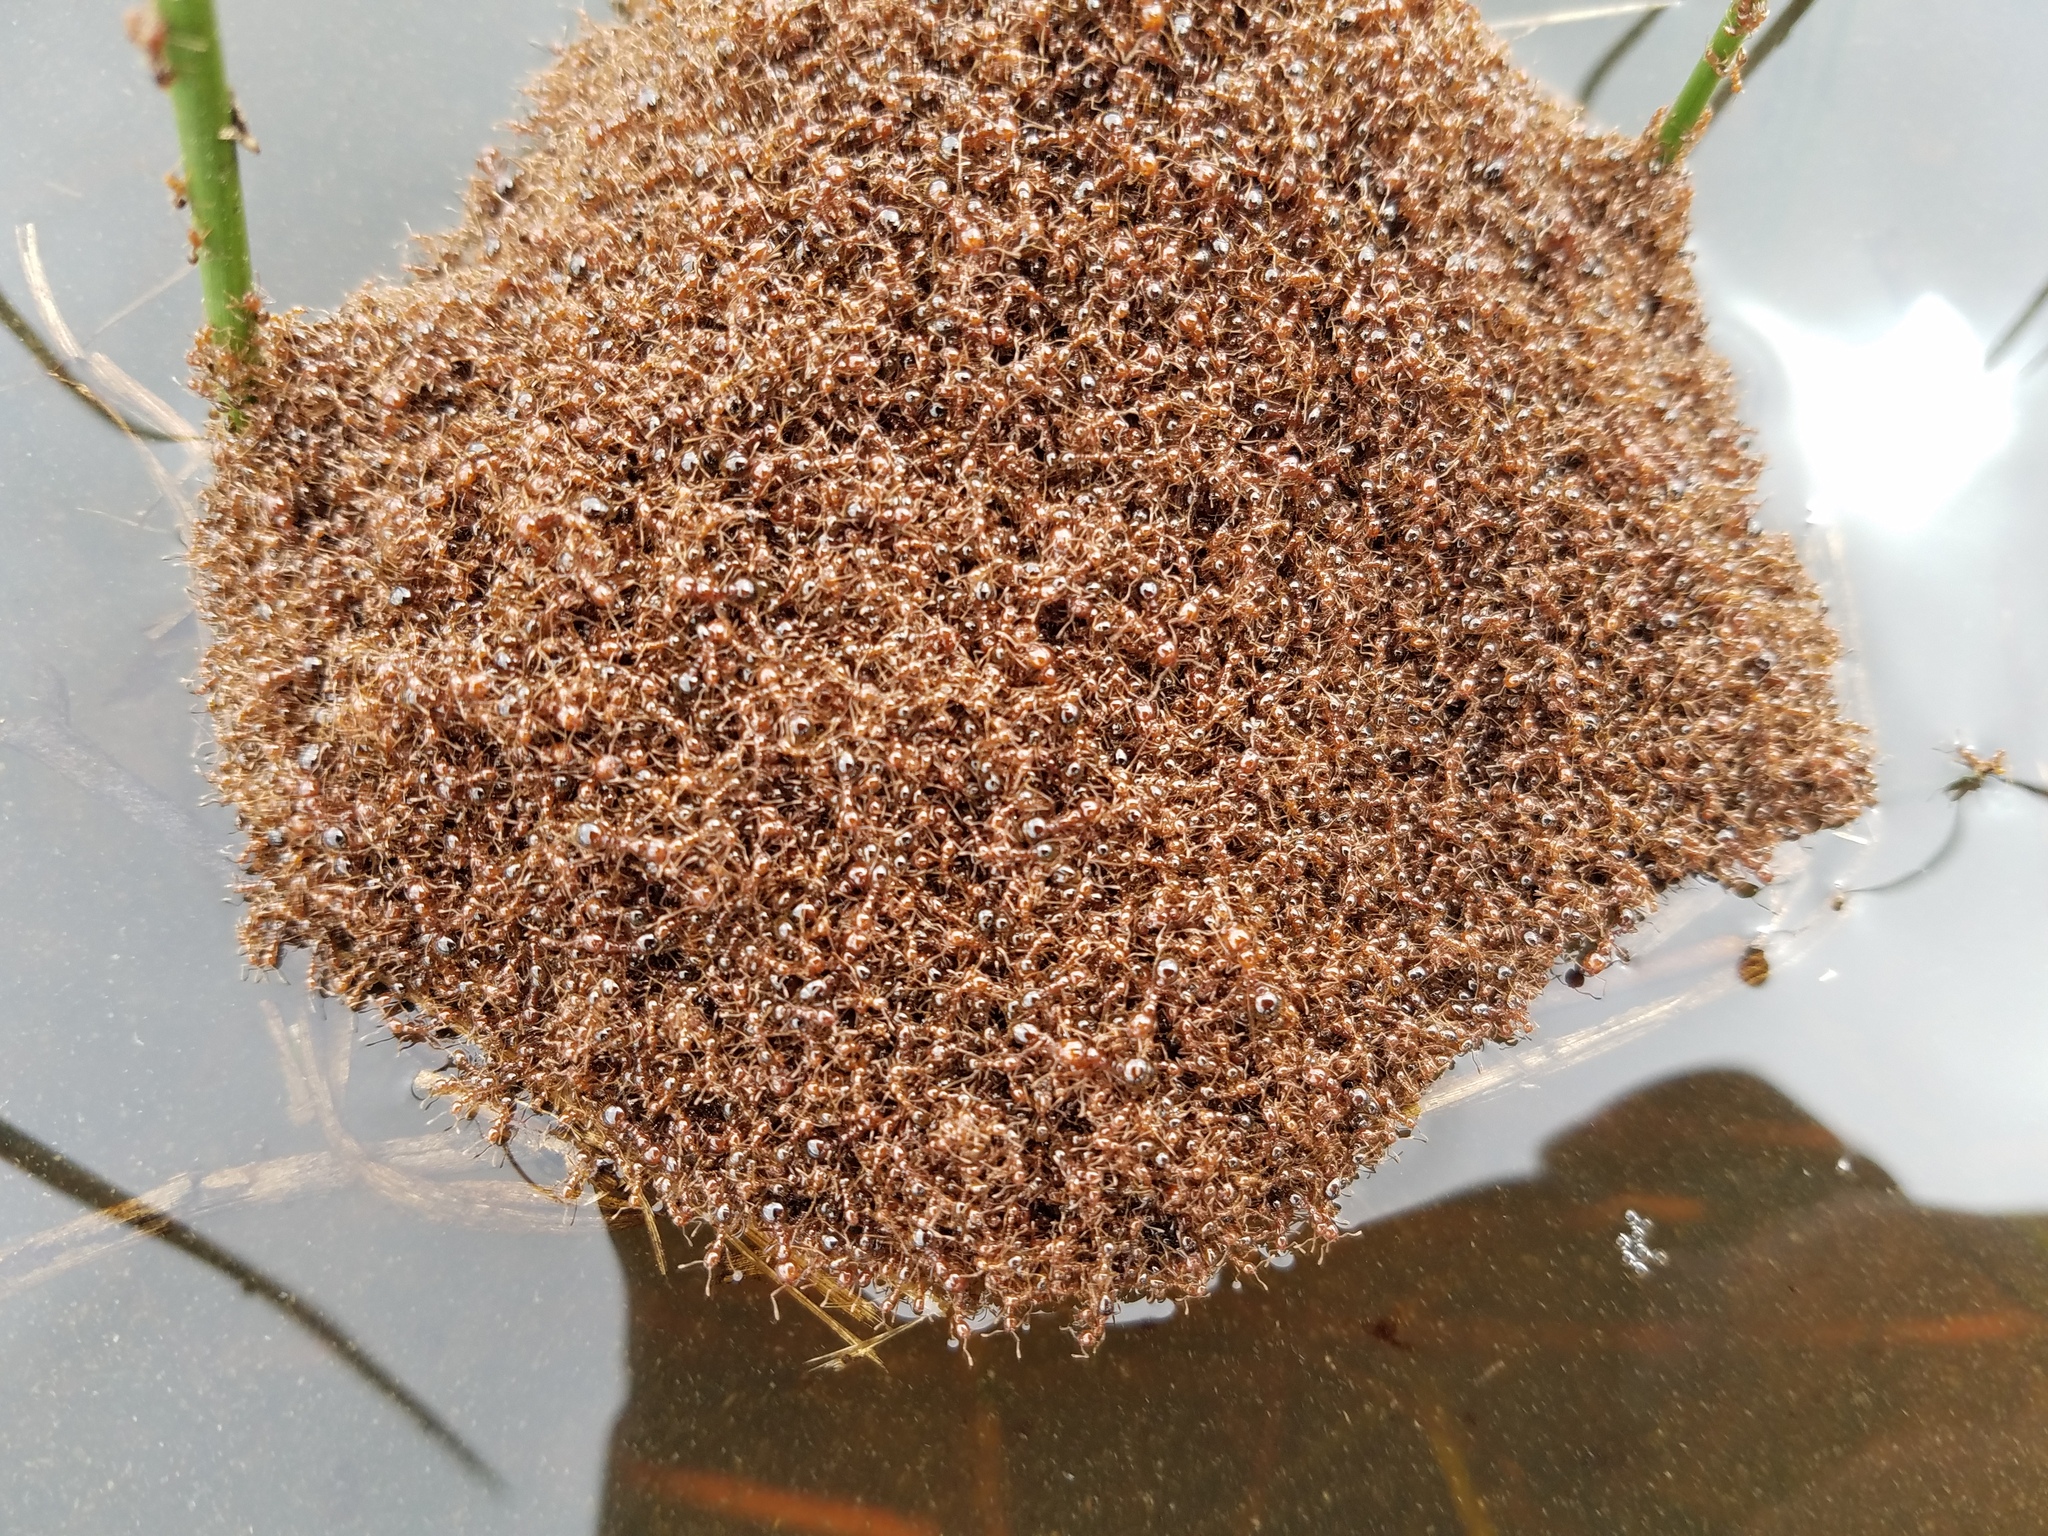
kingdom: Animalia
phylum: Arthropoda
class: Insecta
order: Hymenoptera
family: Formicidae
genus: Solenopsis
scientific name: Solenopsis invicta
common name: Red imported fire ant
